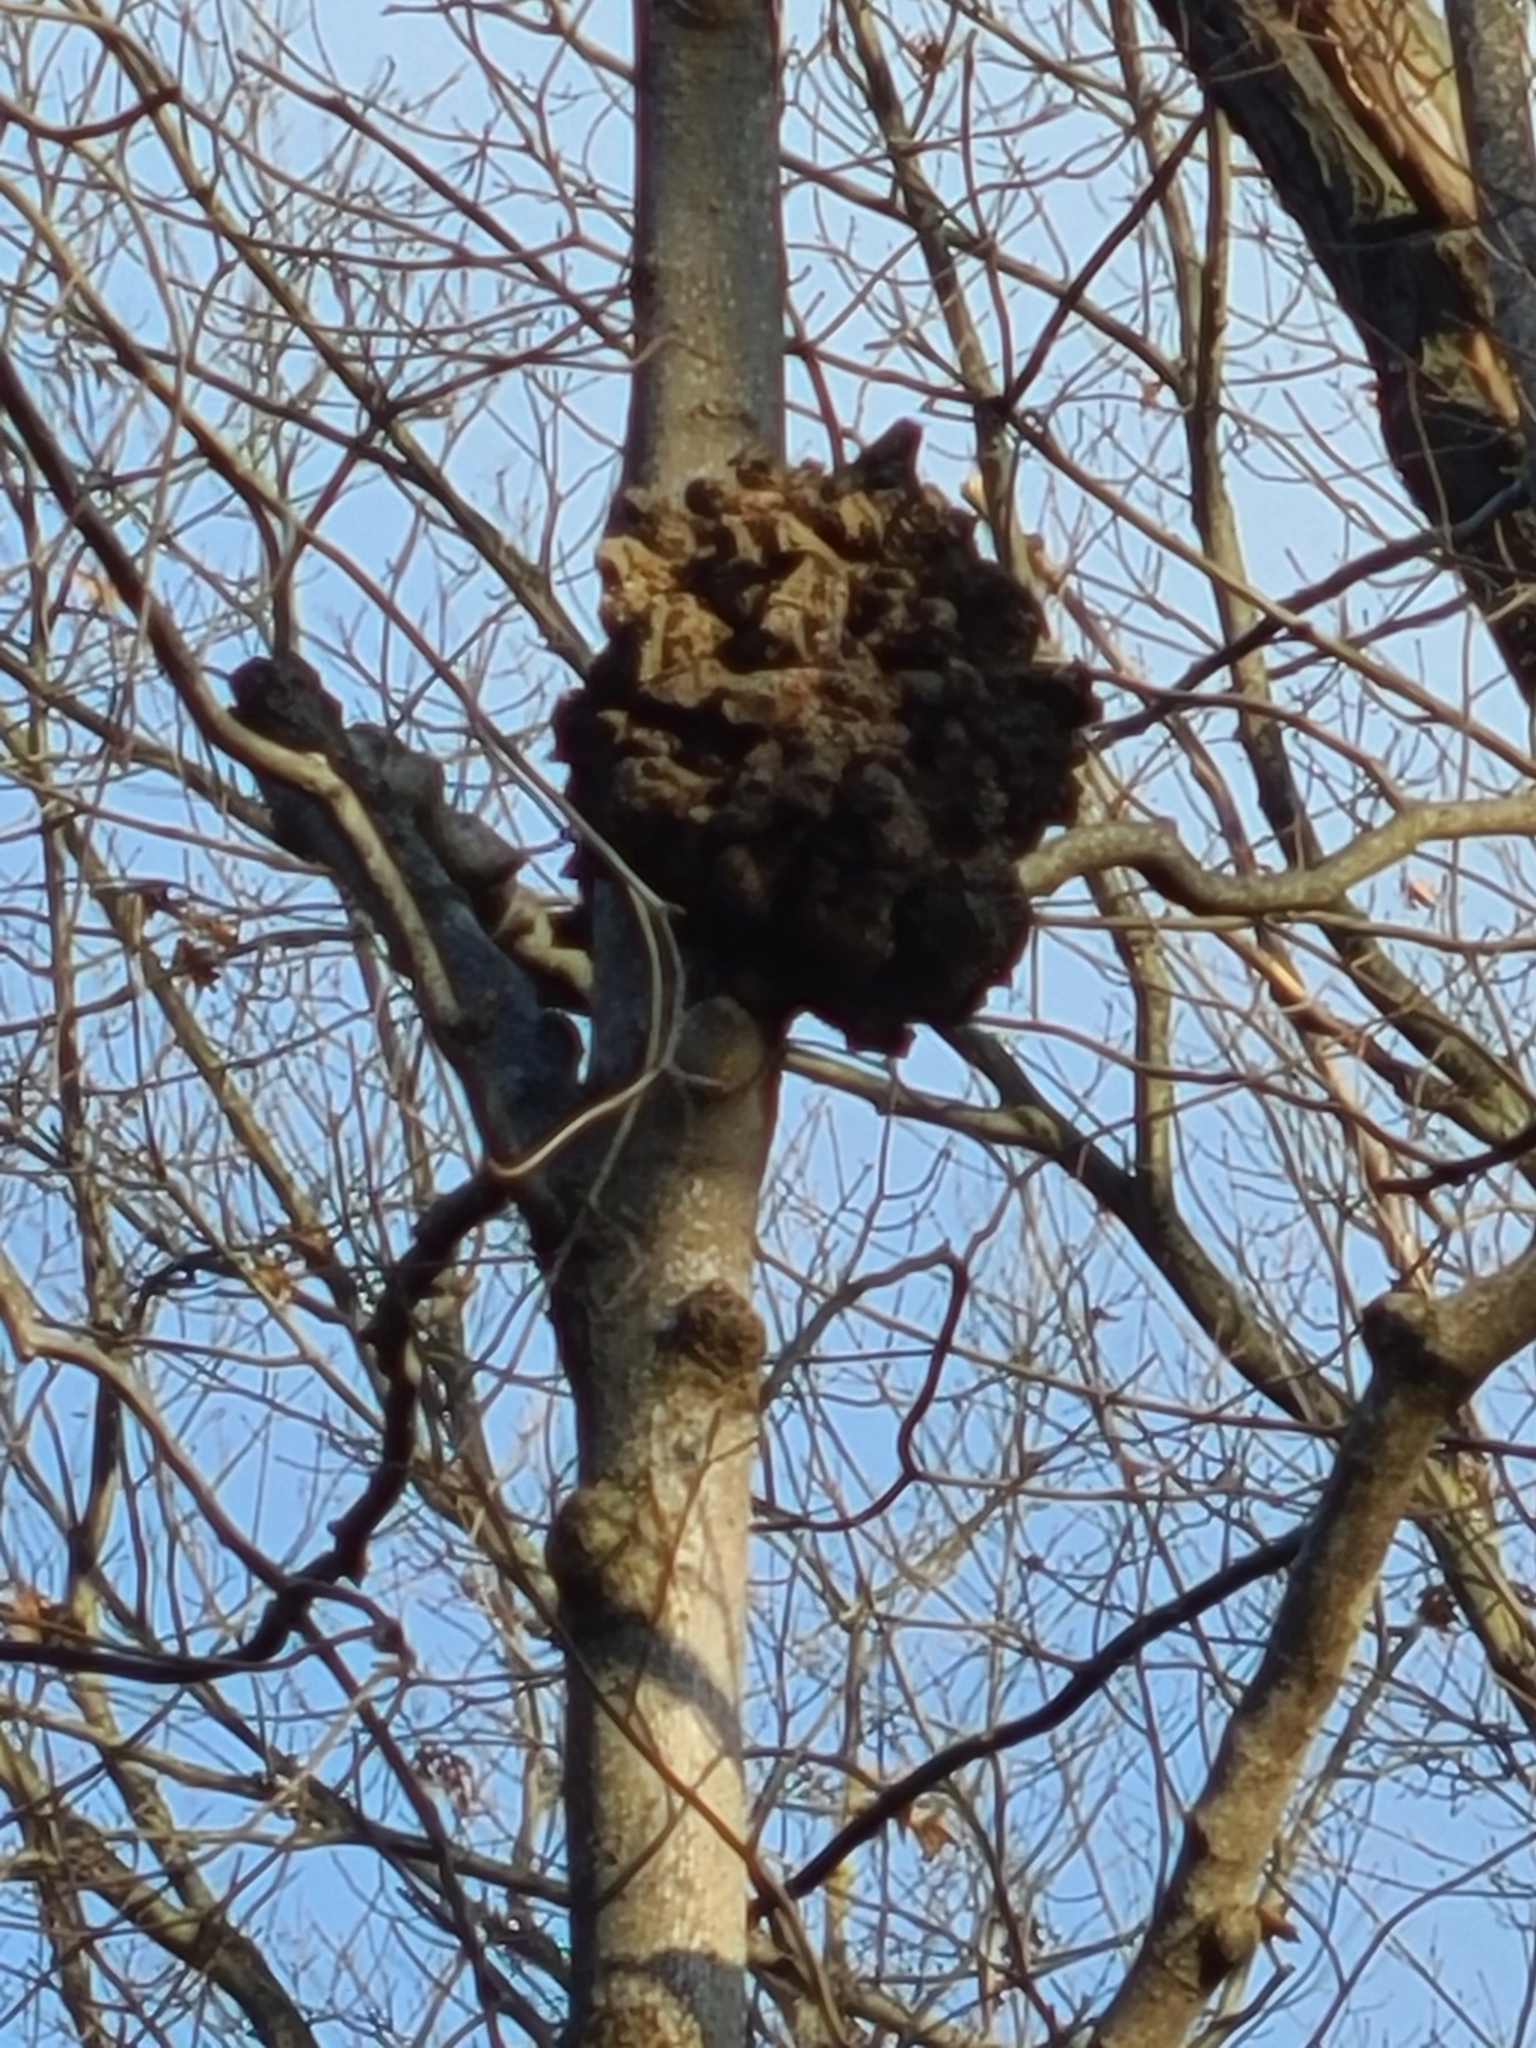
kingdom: Bacteria
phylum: Proteobacteria
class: Alphaproteobacteria
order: Rhizobiales
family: Rhizobiaceae
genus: Rhizobium
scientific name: Rhizobium Agrobacterium radiobacter
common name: Bacterial crown gall
